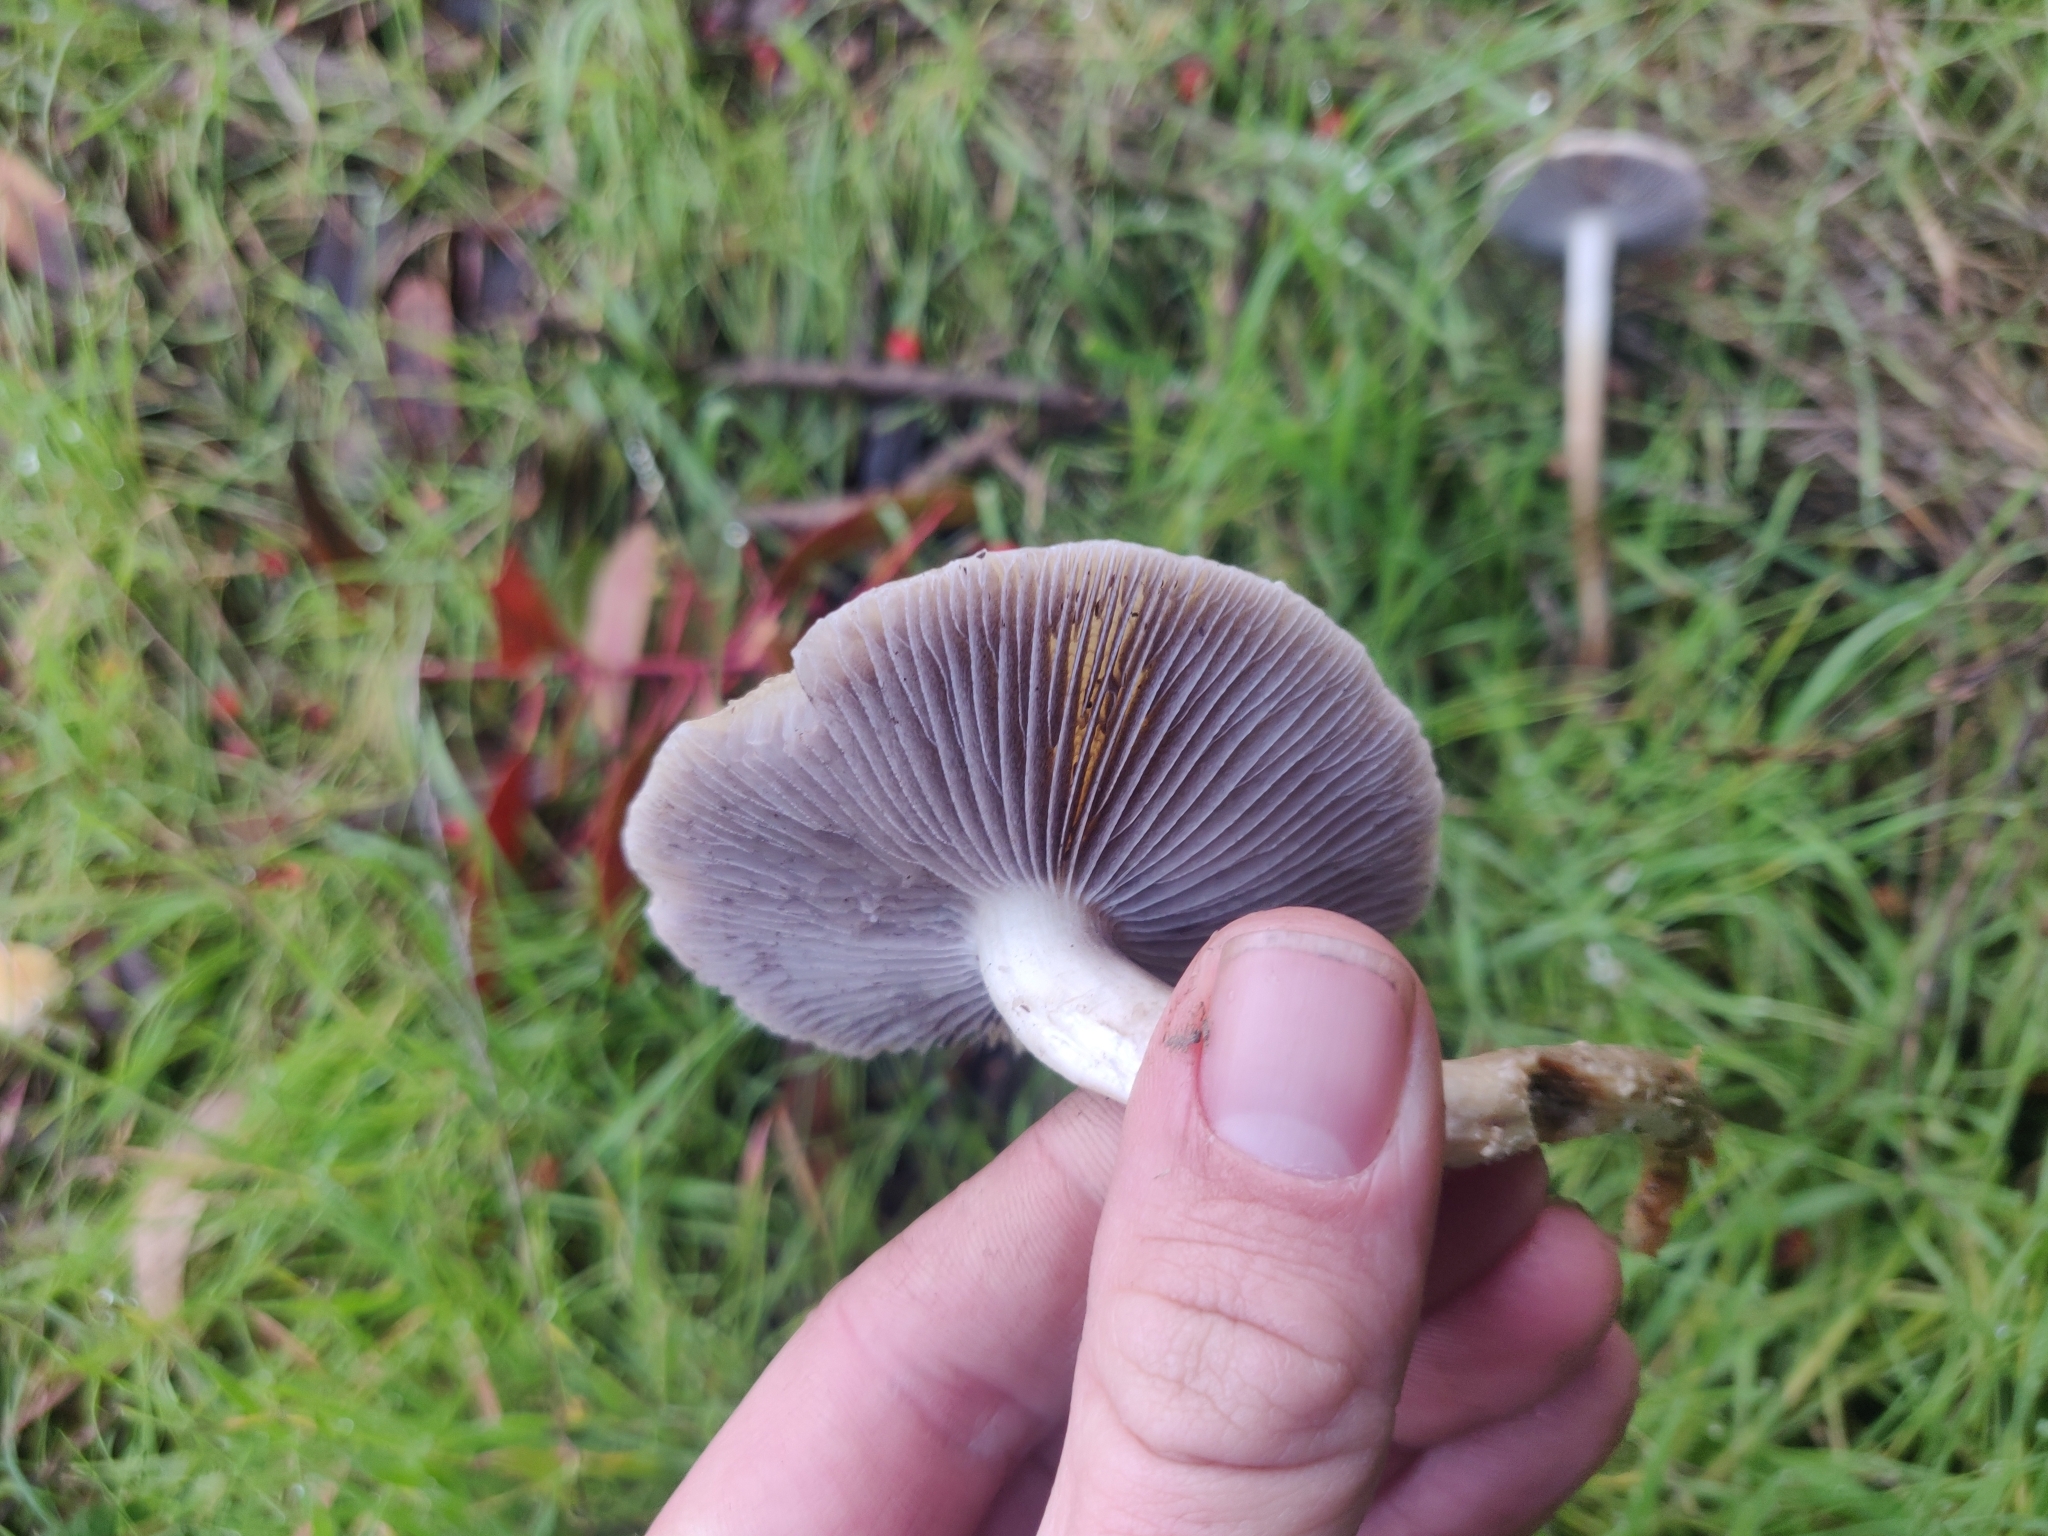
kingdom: Fungi
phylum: Basidiomycota
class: Agaricomycetes
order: Agaricales
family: Strophariaceae
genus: Leratiomyces
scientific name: Leratiomyces percevalii
